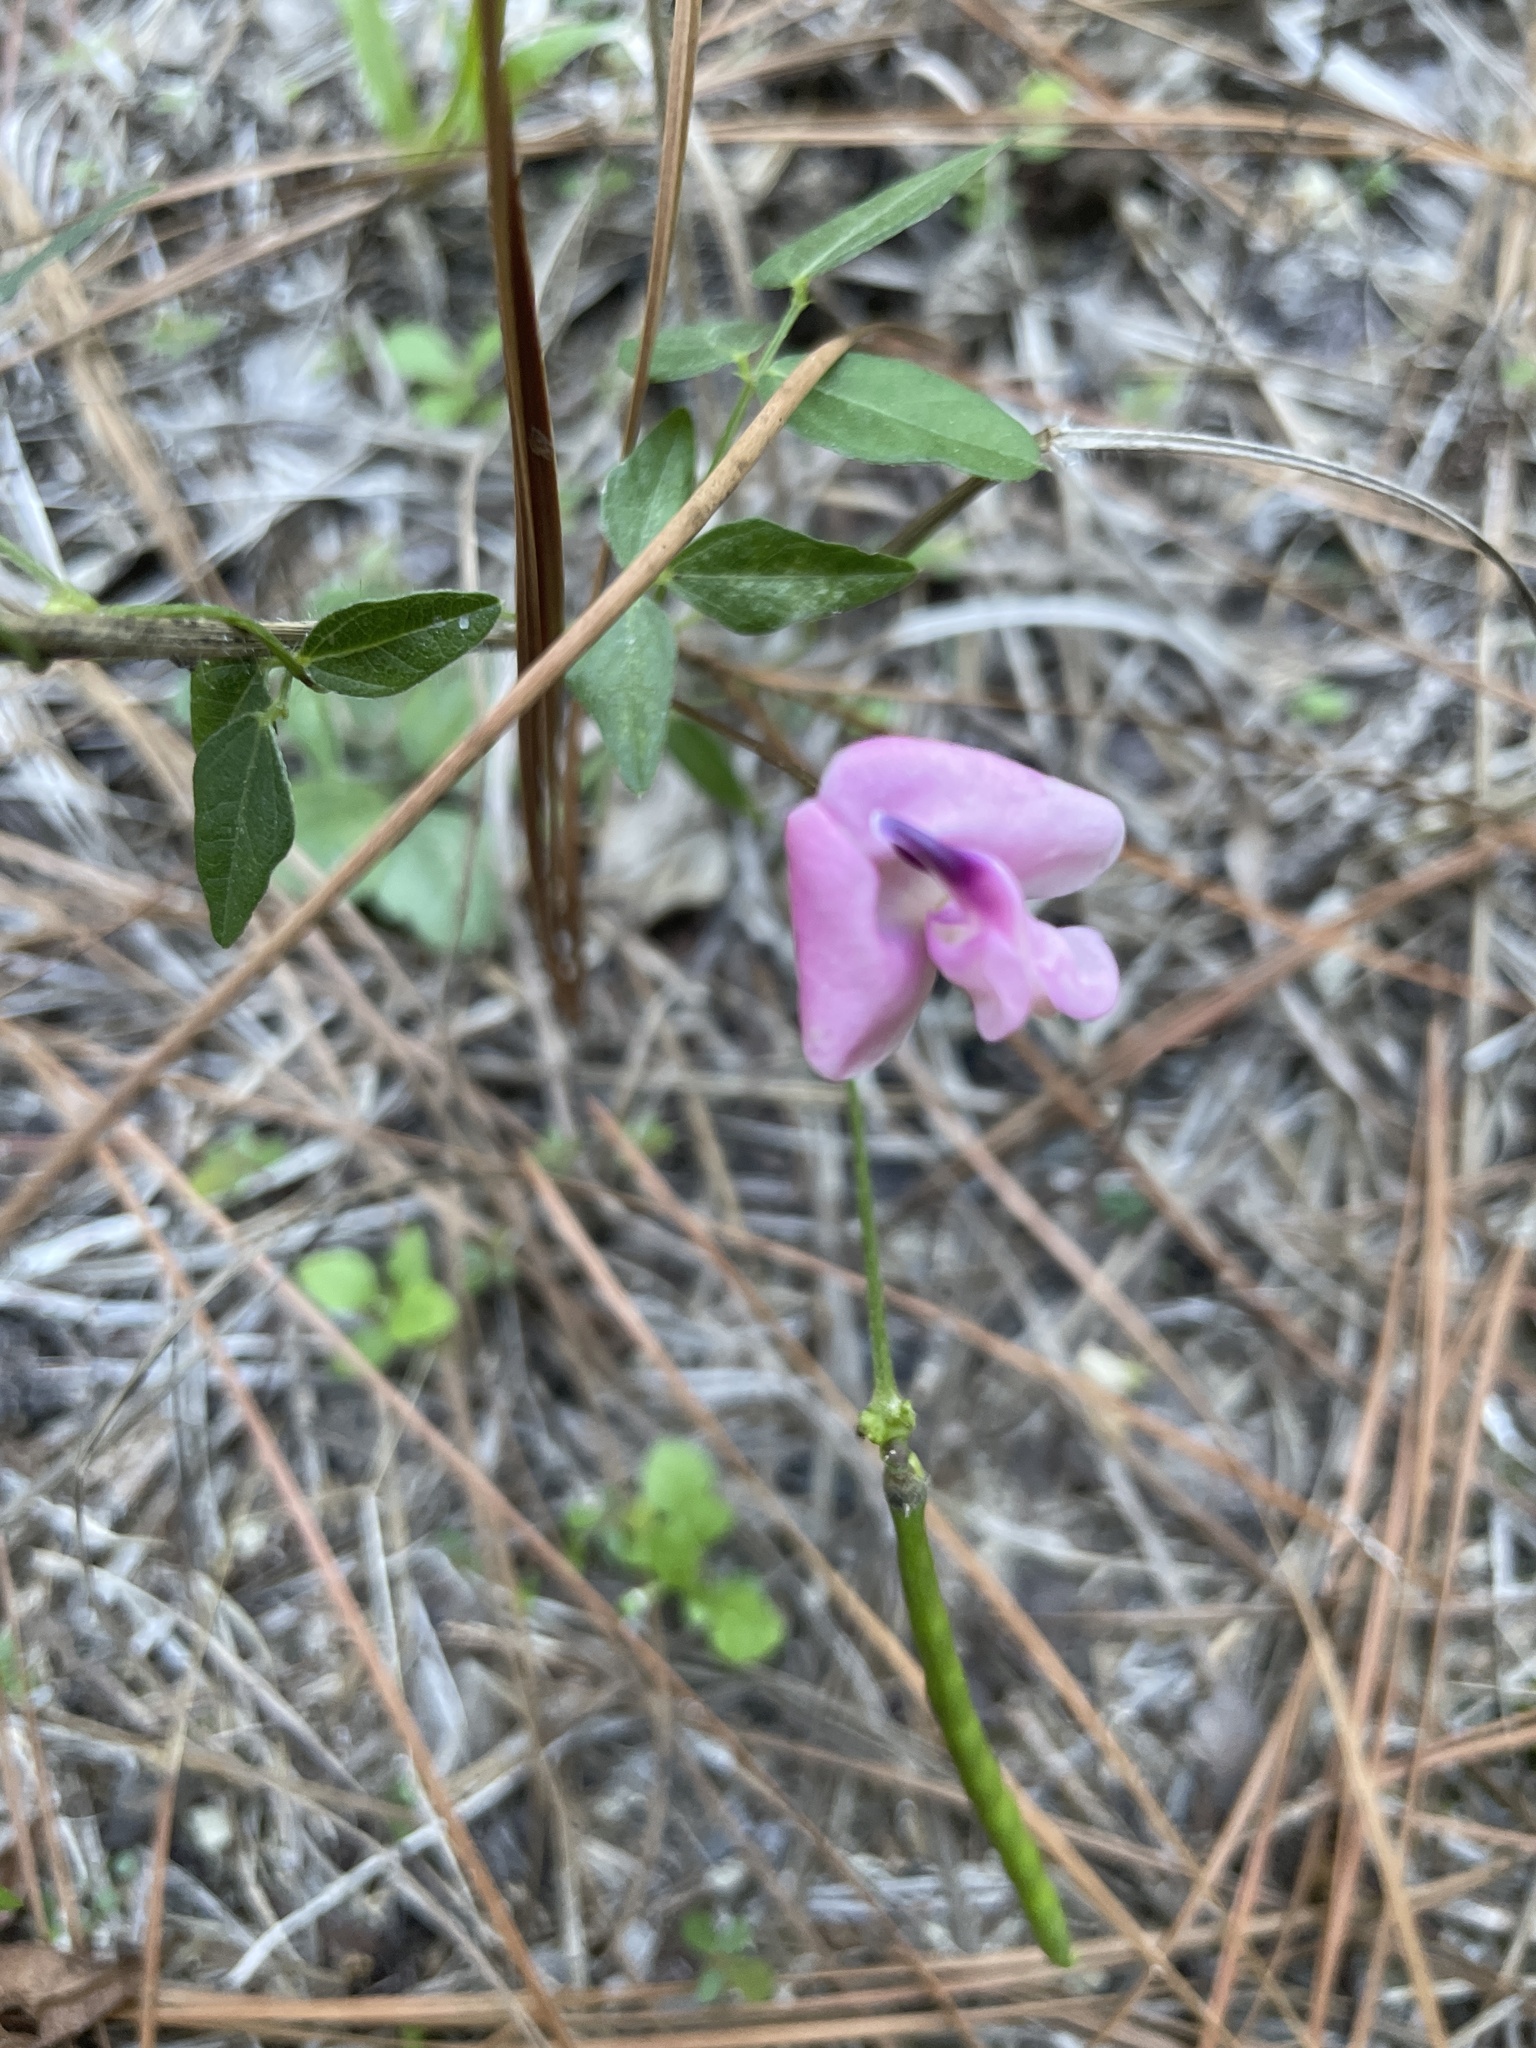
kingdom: Plantae
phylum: Tracheophyta
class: Magnoliopsida
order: Fabales
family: Fabaceae
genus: Strophostyles
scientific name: Strophostyles umbellata
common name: Perennial wild bean
